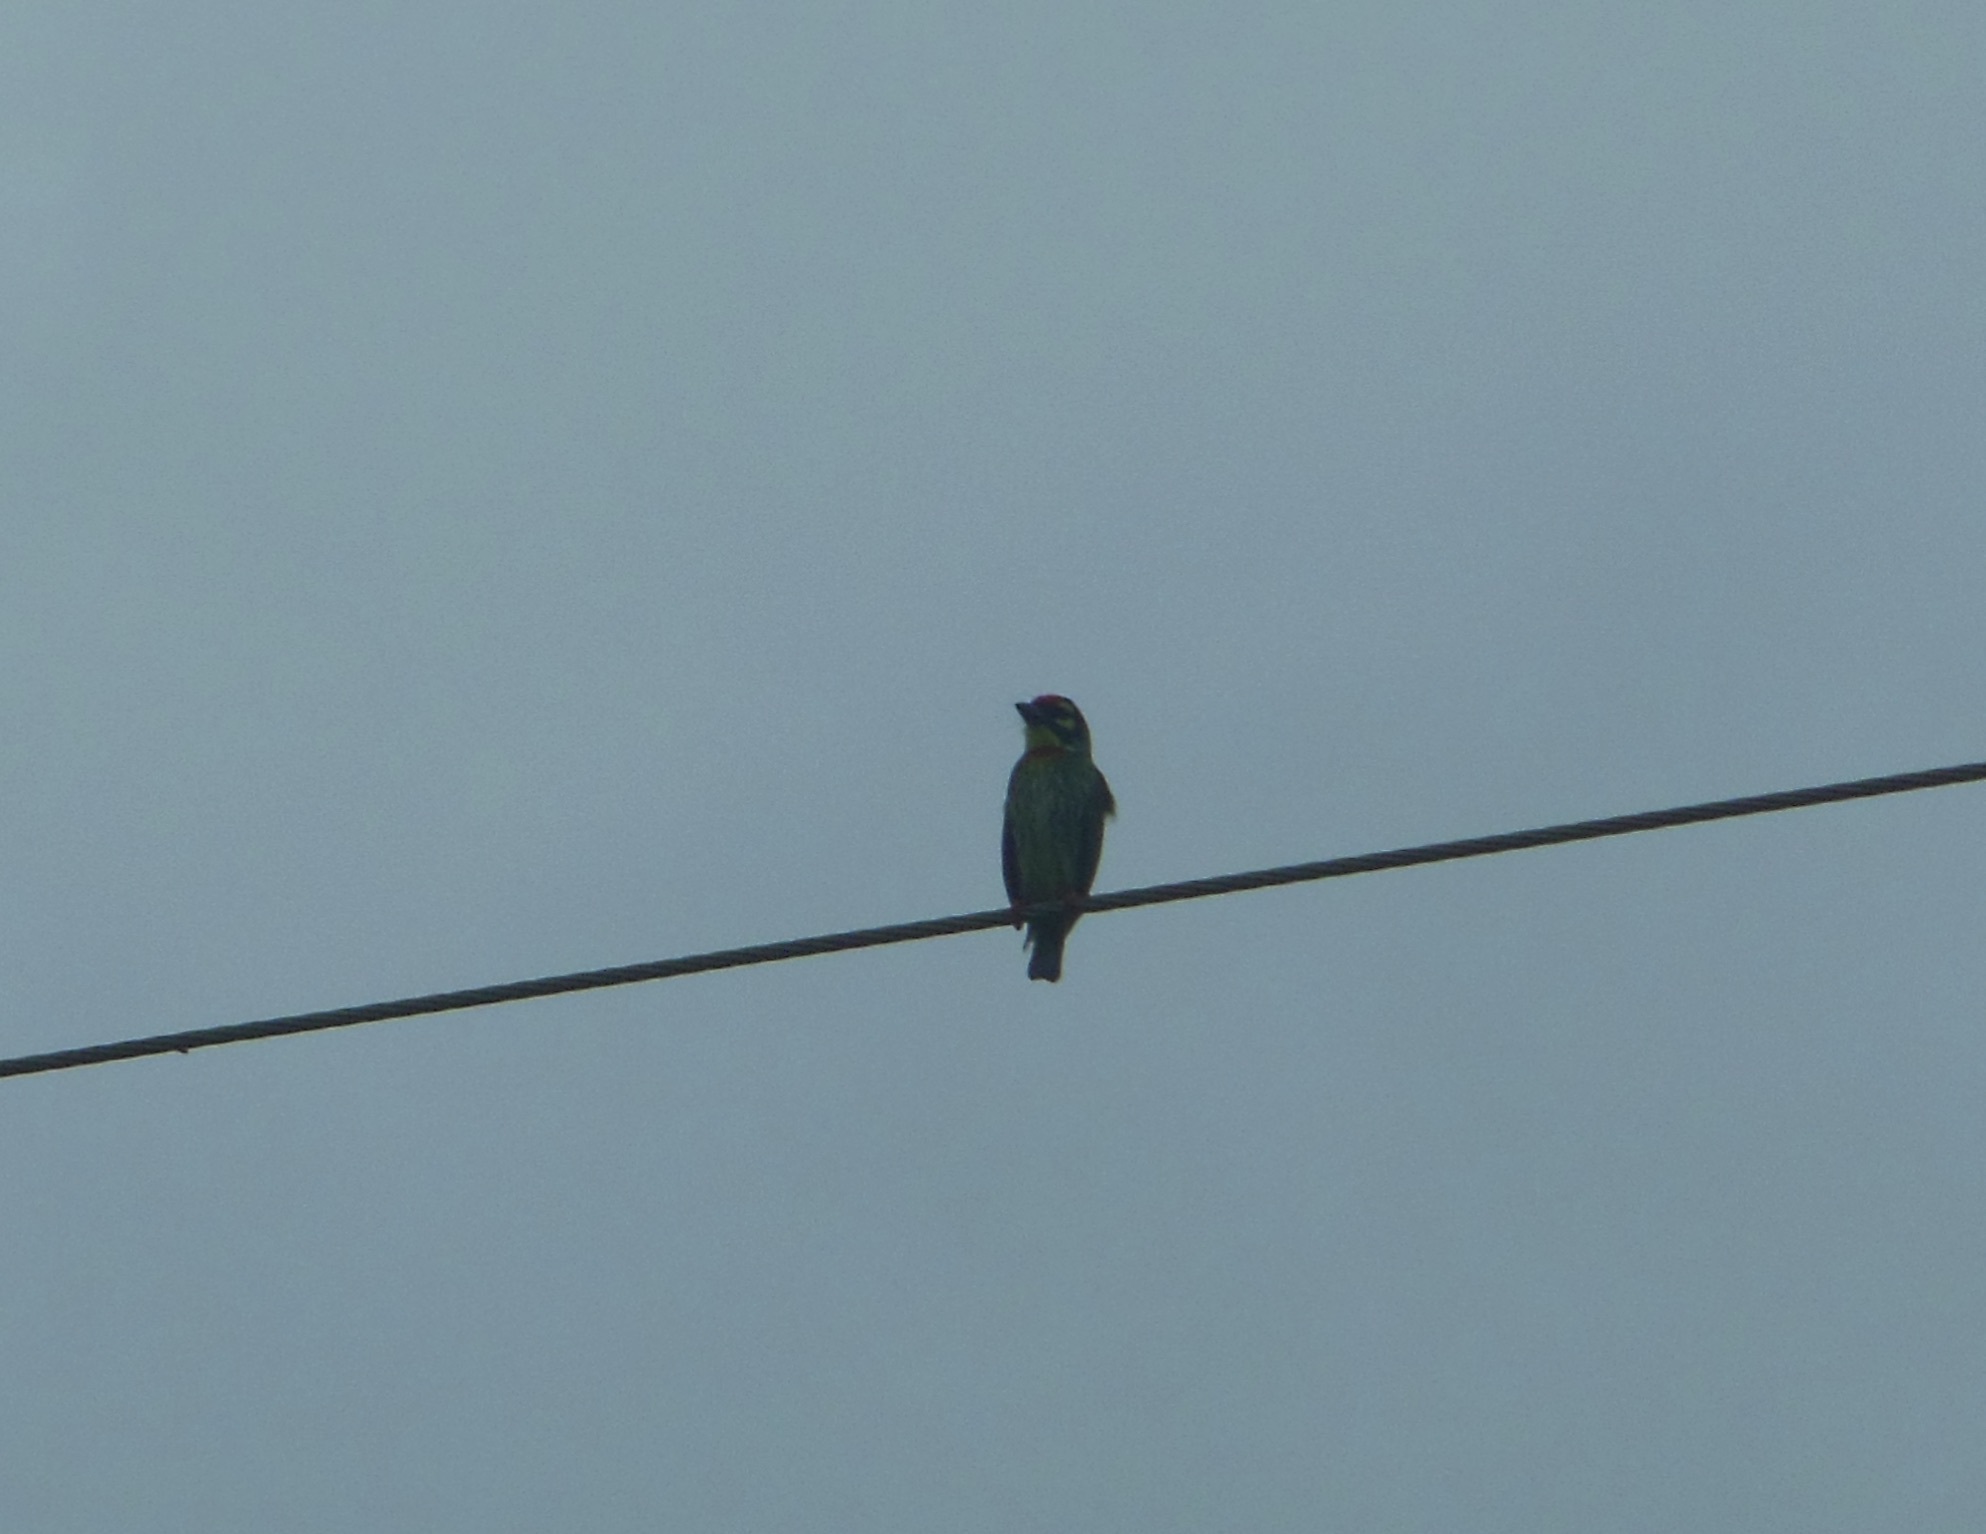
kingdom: Animalia
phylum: Chordata
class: Aves
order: Piciformes
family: Megalaimidae
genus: Psilopogon
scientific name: Psilopogon haemacephalus
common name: Coppersmith barbet
